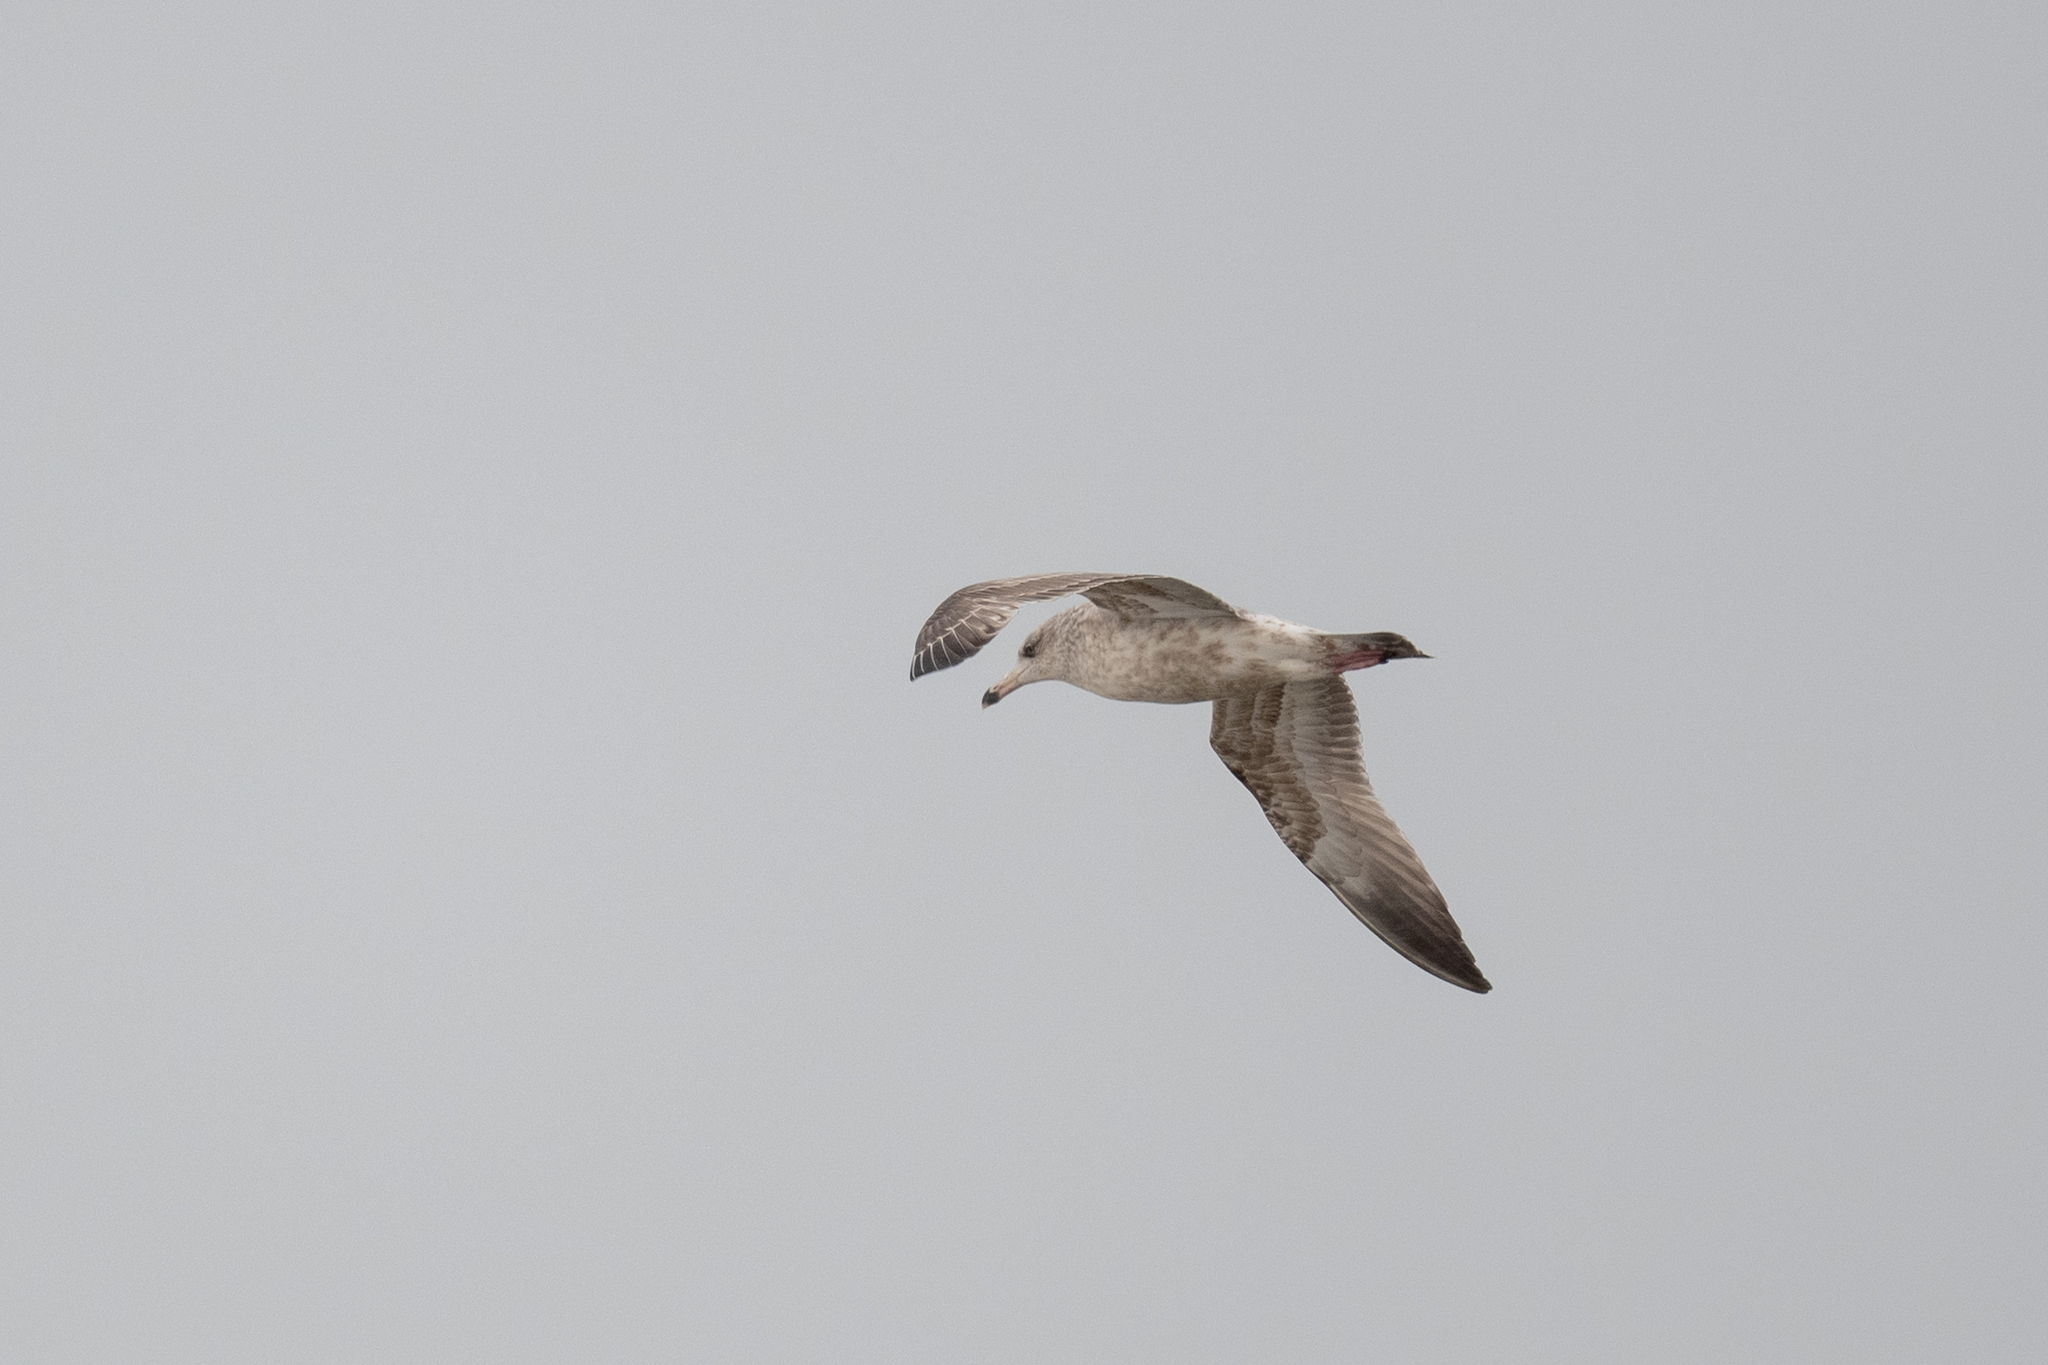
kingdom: Animalia
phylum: Chordata
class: Aves
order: Charadriiformes
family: Laridae
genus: Larus
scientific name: Larus argentatus
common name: Herring gull
